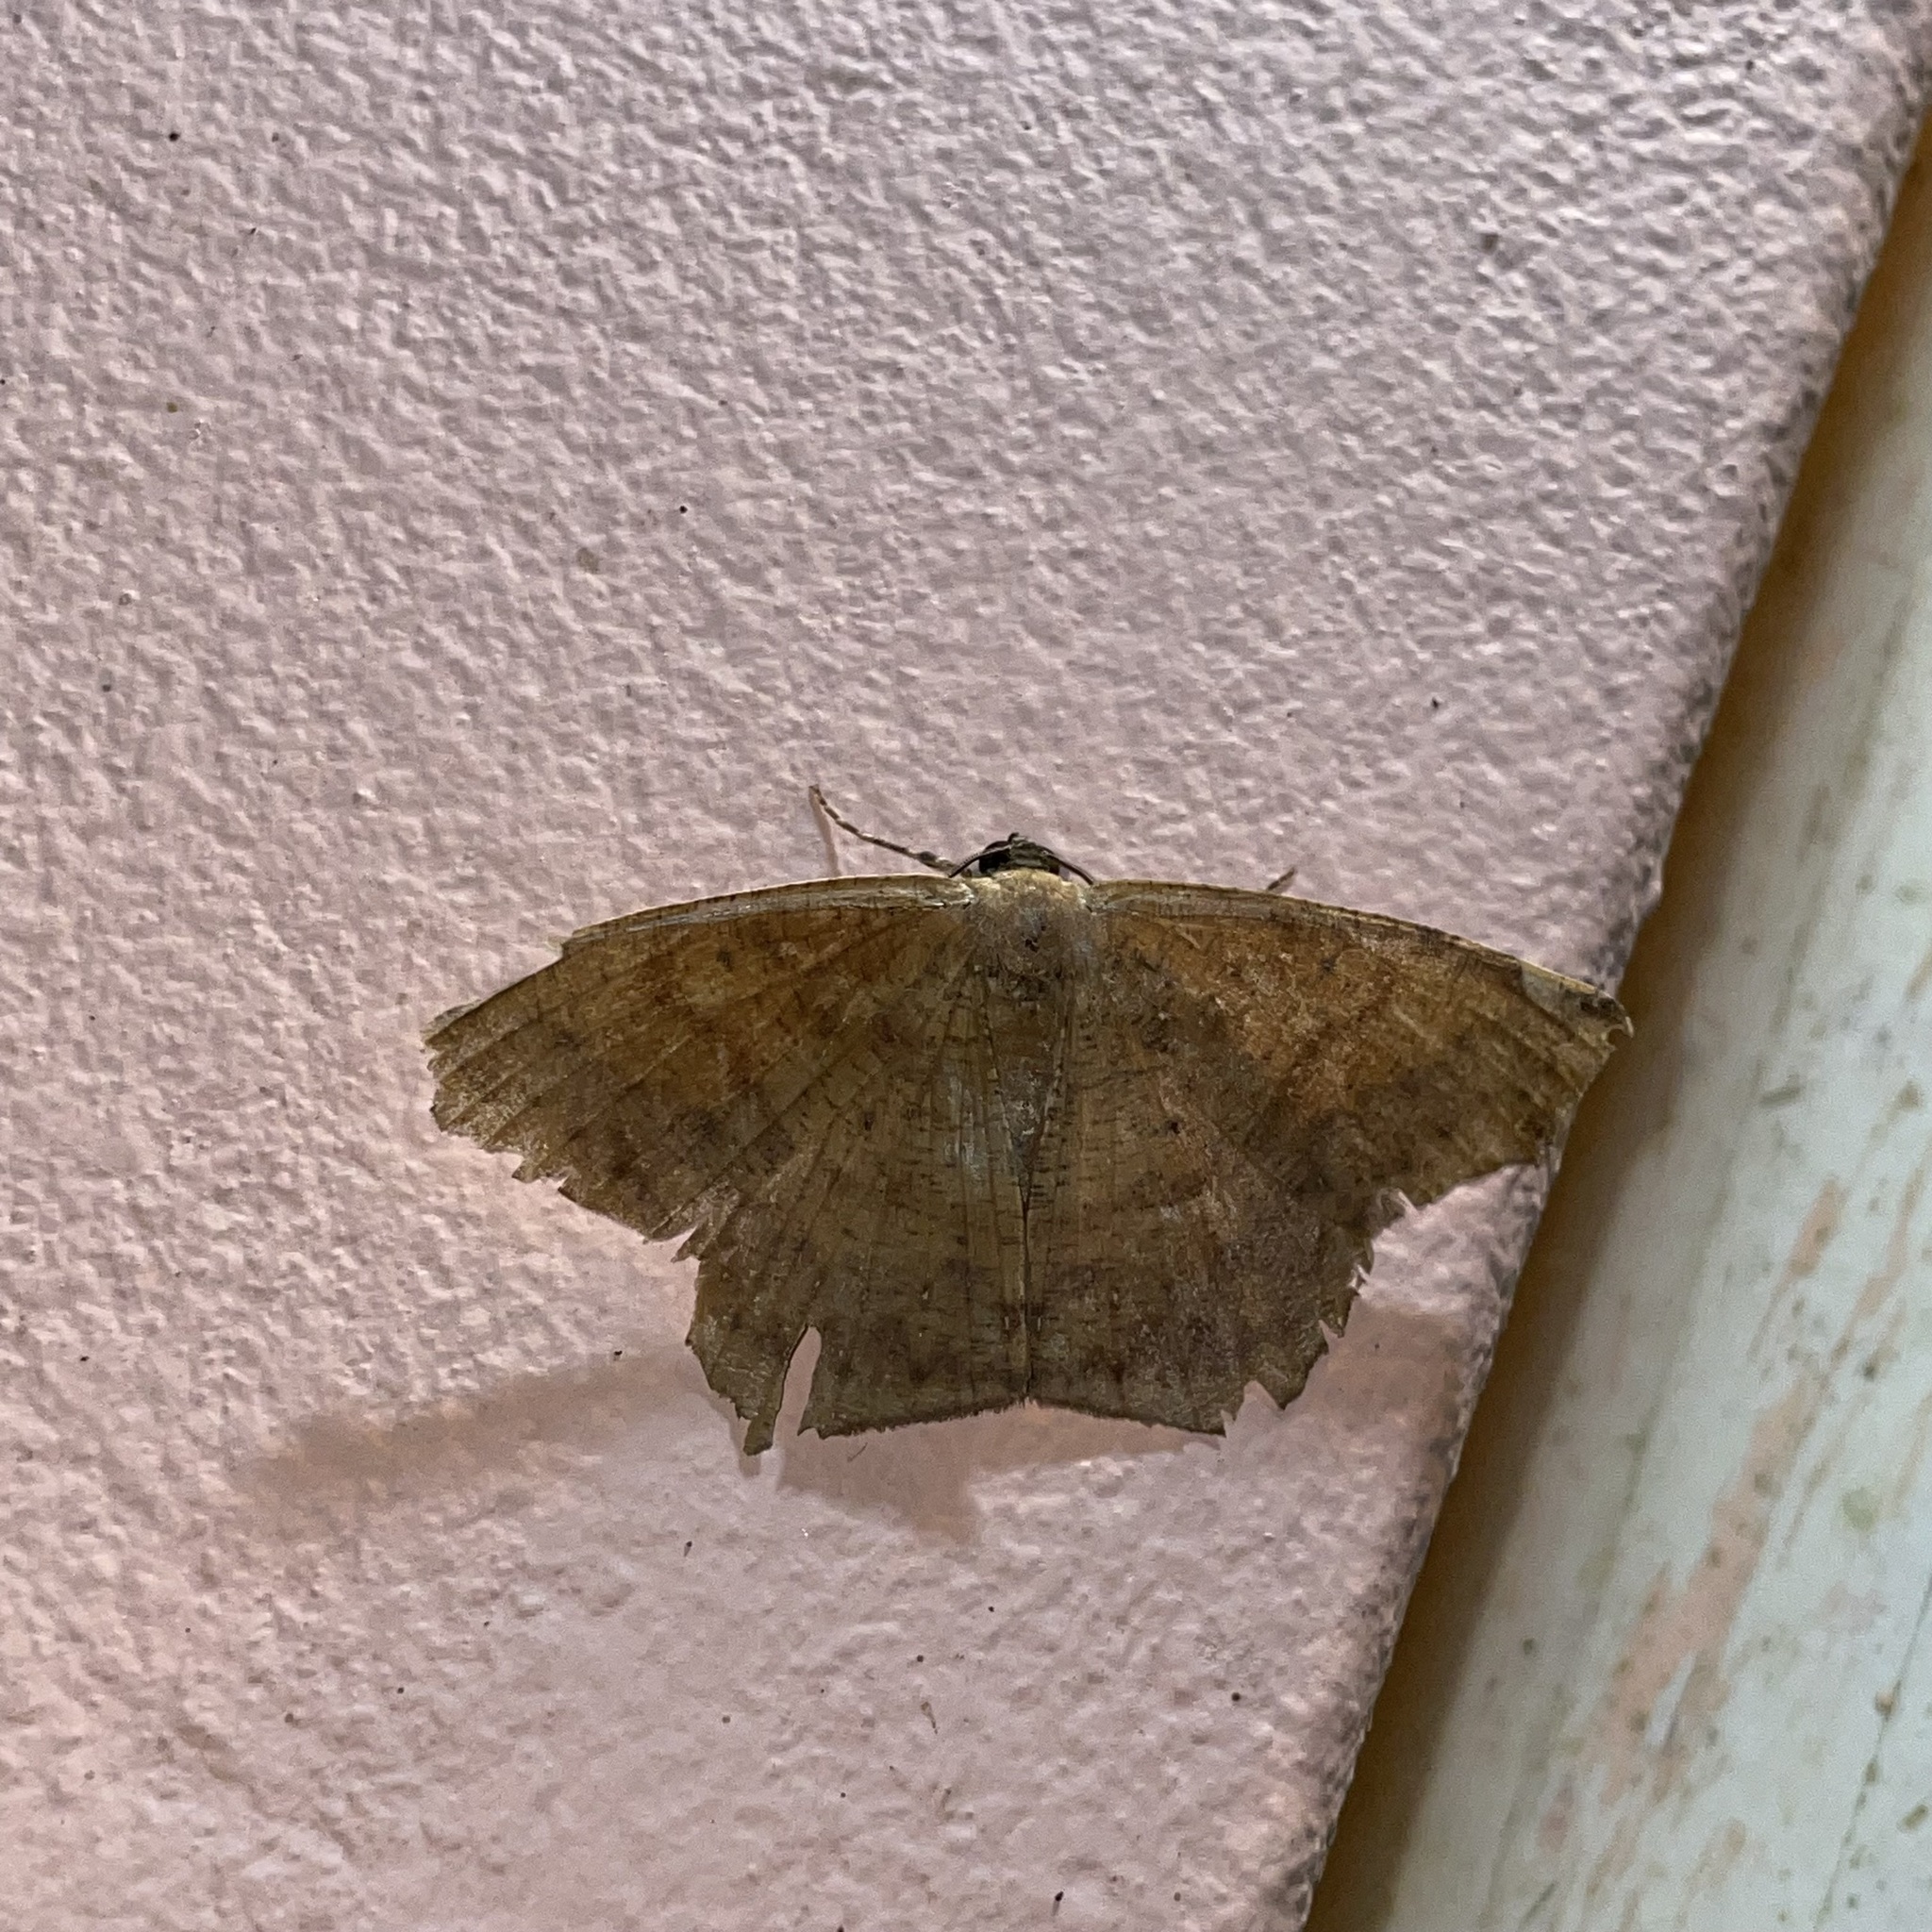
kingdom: Animalia
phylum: Arthropoda
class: Insecta
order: Lepidoptera
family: Geometridae
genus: Paragonia
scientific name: Paragonia cruraria
